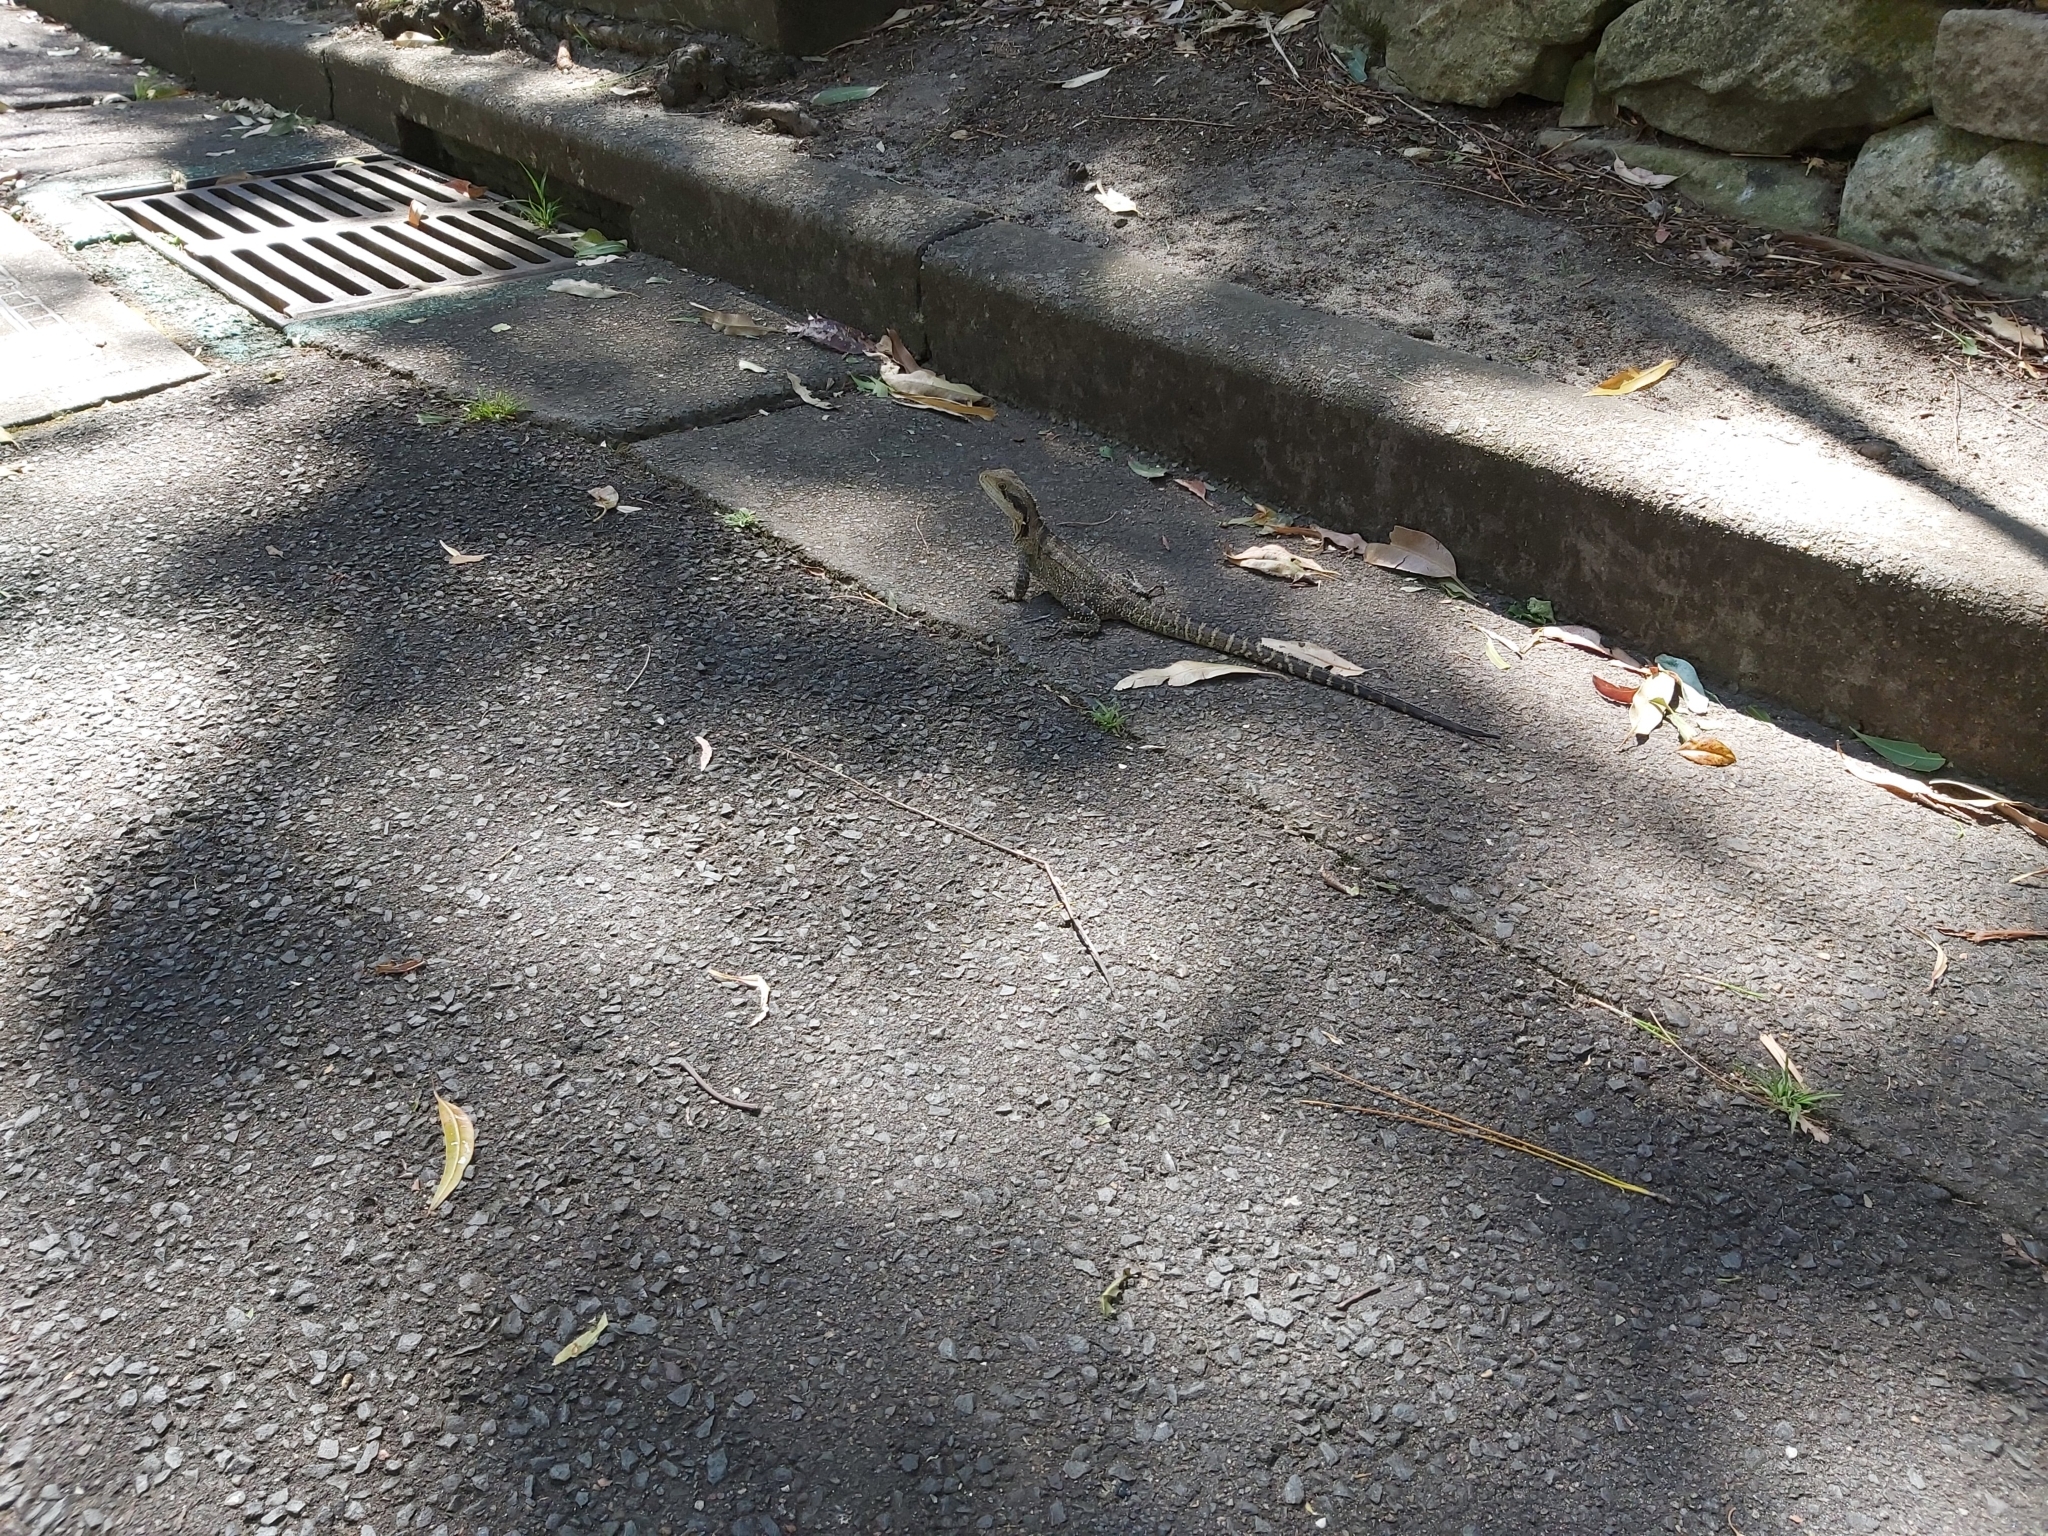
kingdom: Animalia
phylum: Chordata
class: Squamata
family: Agamidae
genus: Intellagama
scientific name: Intellagama lesueurii
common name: Eastern water dragon
